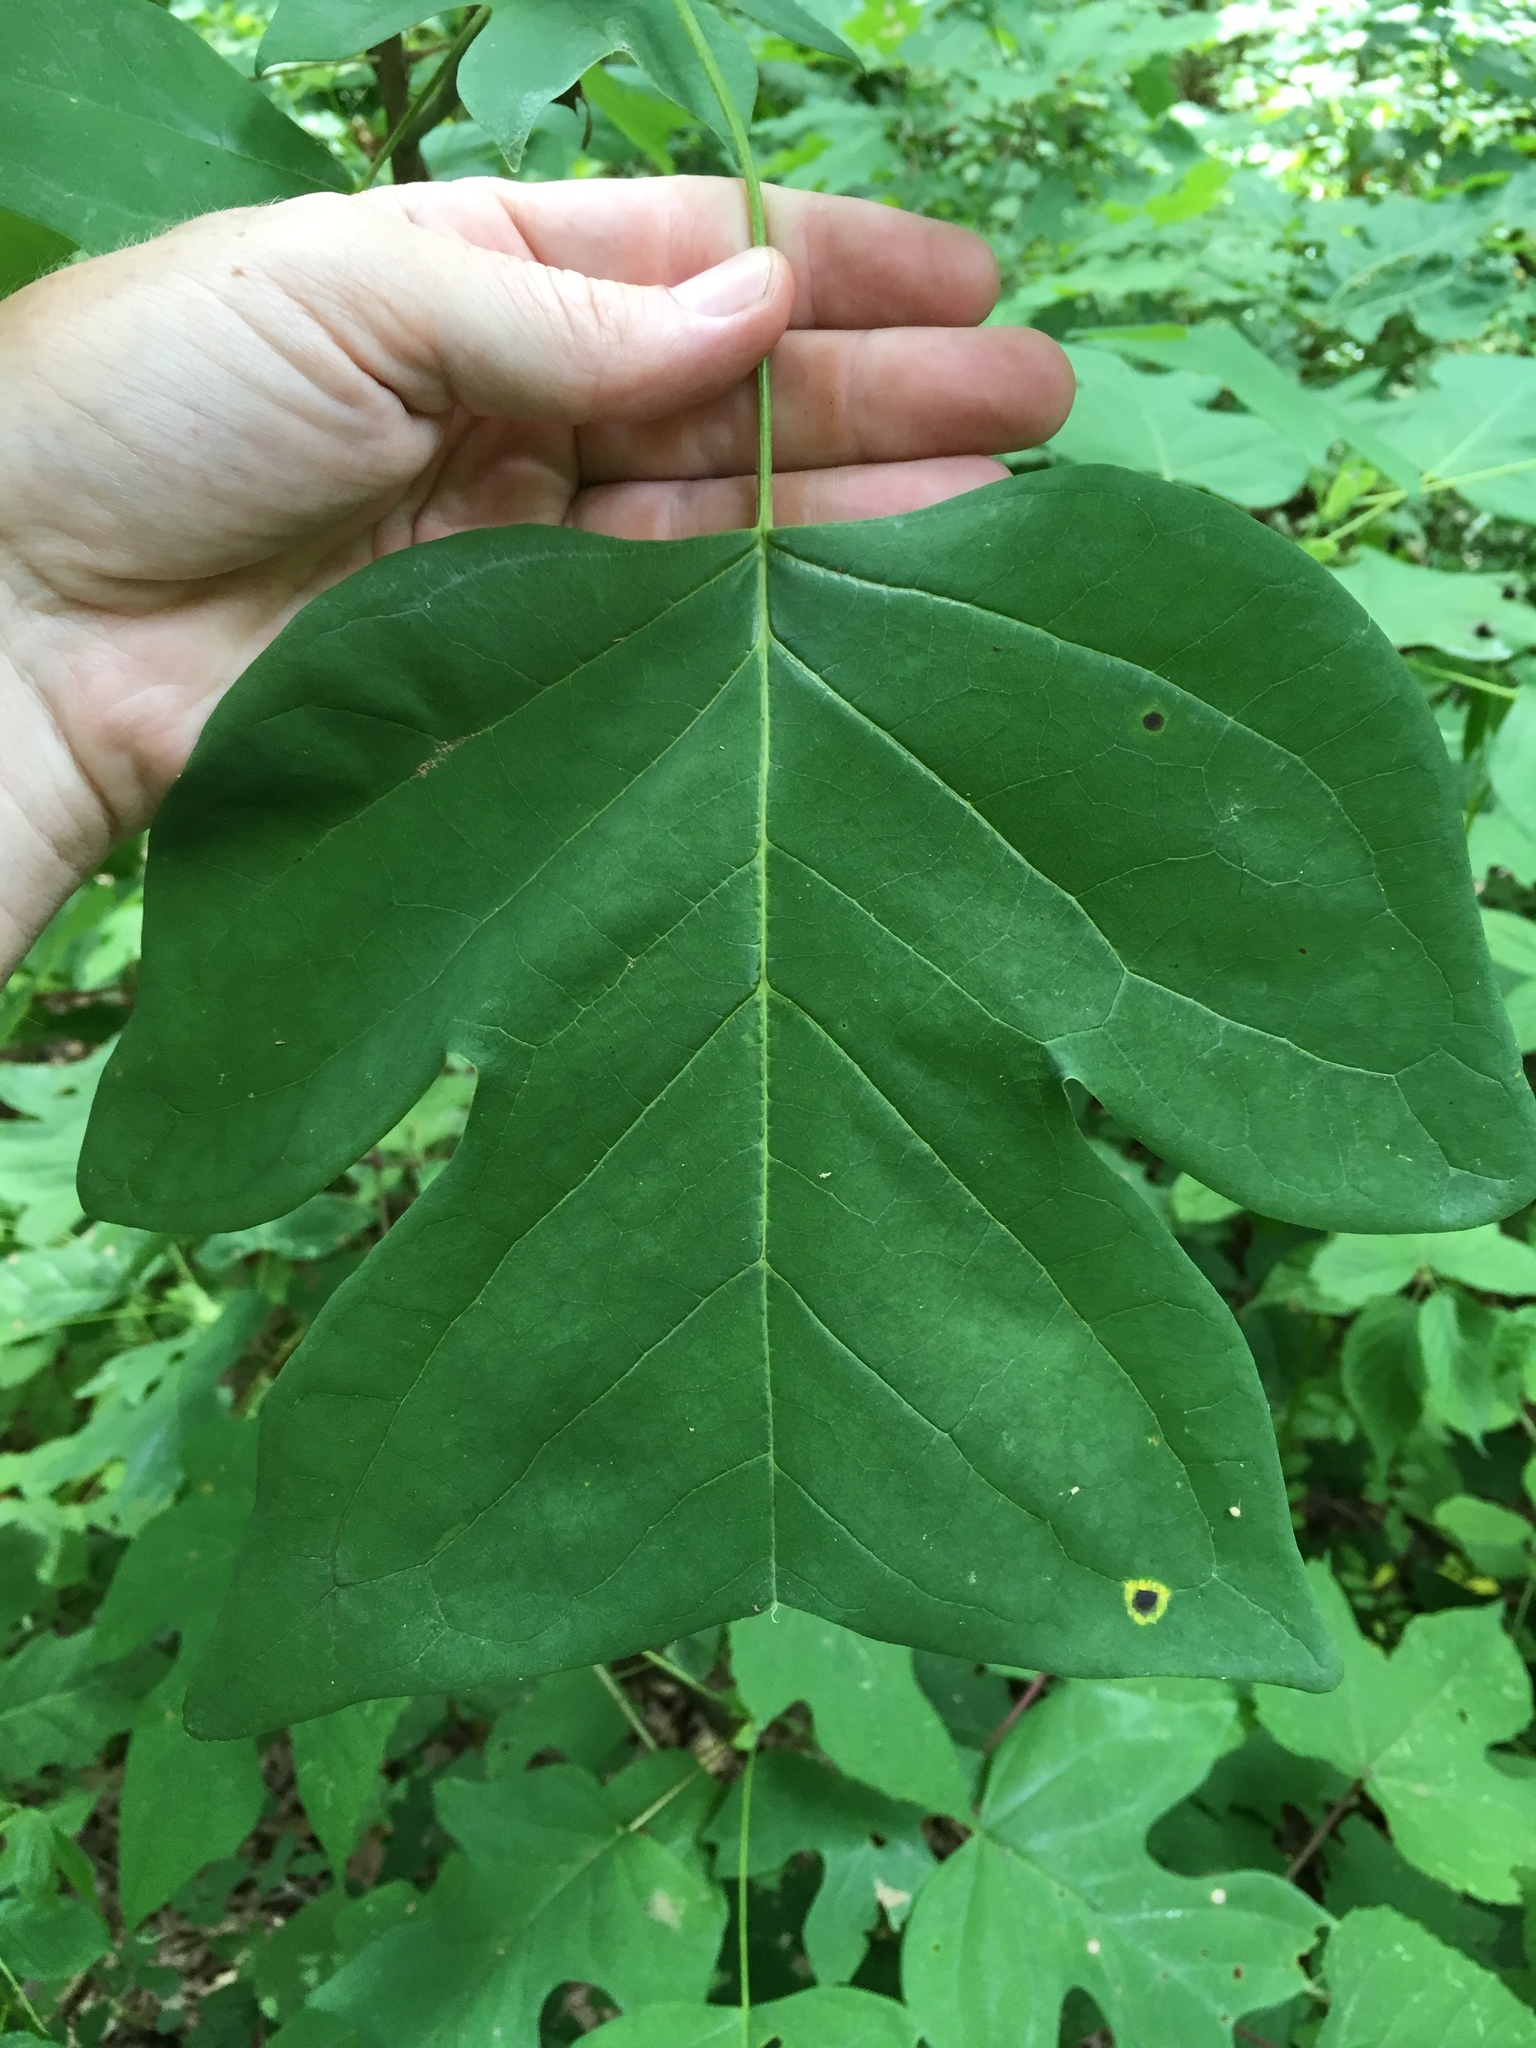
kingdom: Plantae
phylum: Tracheophyta
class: Magnoliopsida
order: Magnoliales
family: Magnoliaceae
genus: Liriodendron
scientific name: Liriodendron tulipifera
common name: Tulip tree
